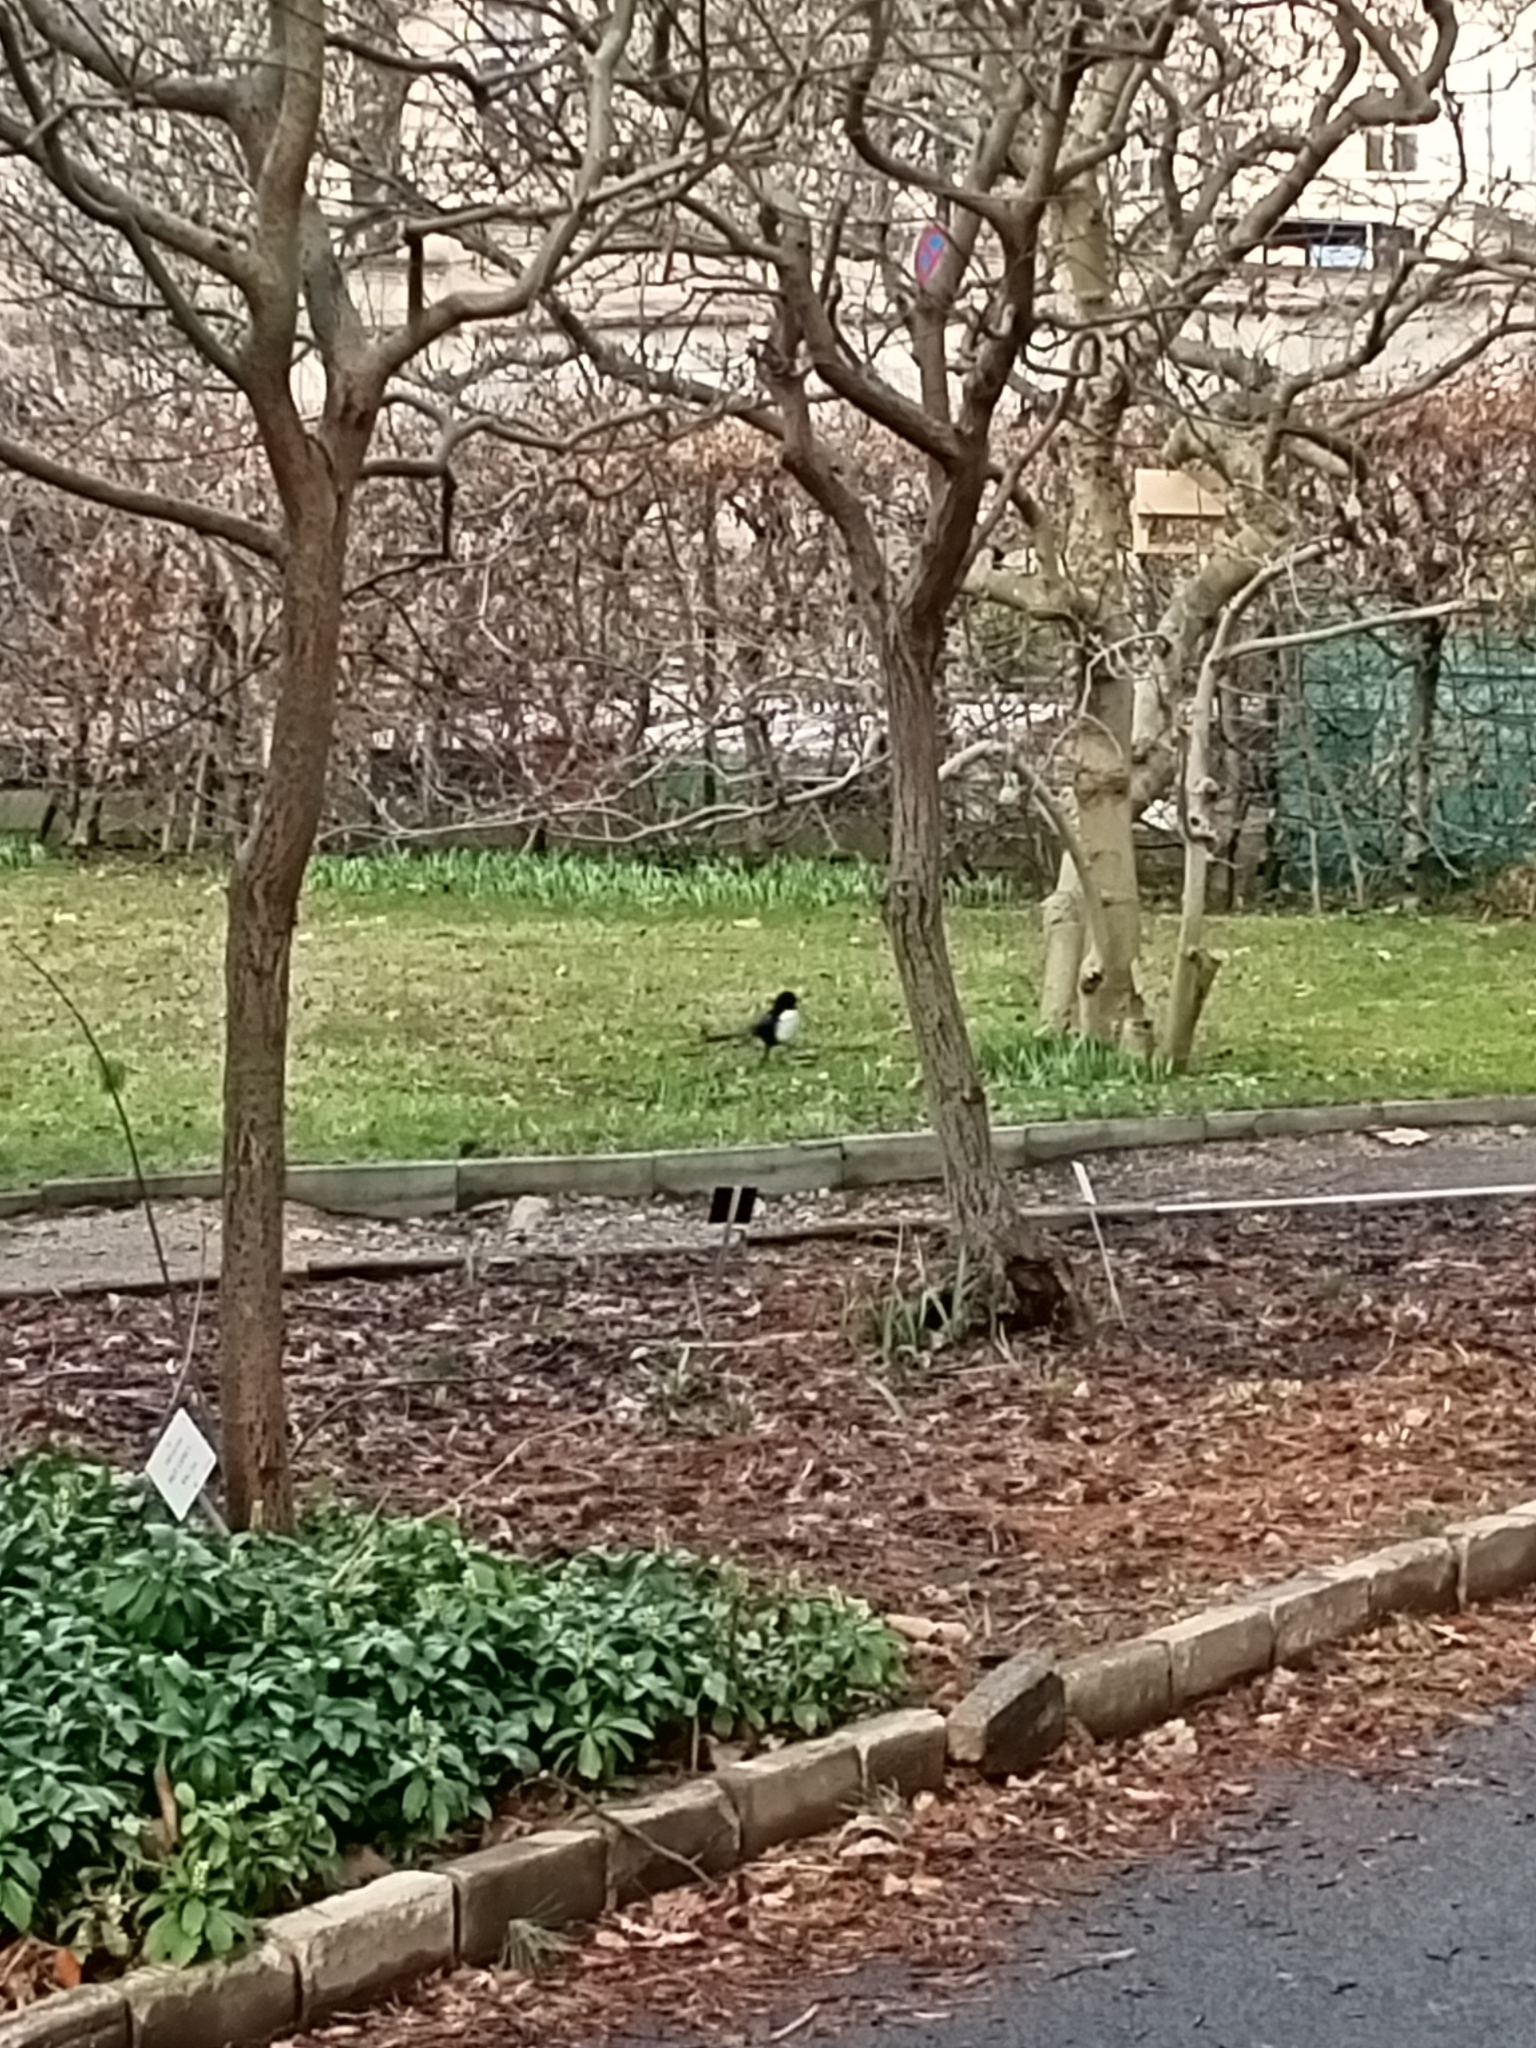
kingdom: Animalia
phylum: Chordata
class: Aves
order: Passeriformes
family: Corvidae
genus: Pica
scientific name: Pica pica
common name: Eurasian magpie
